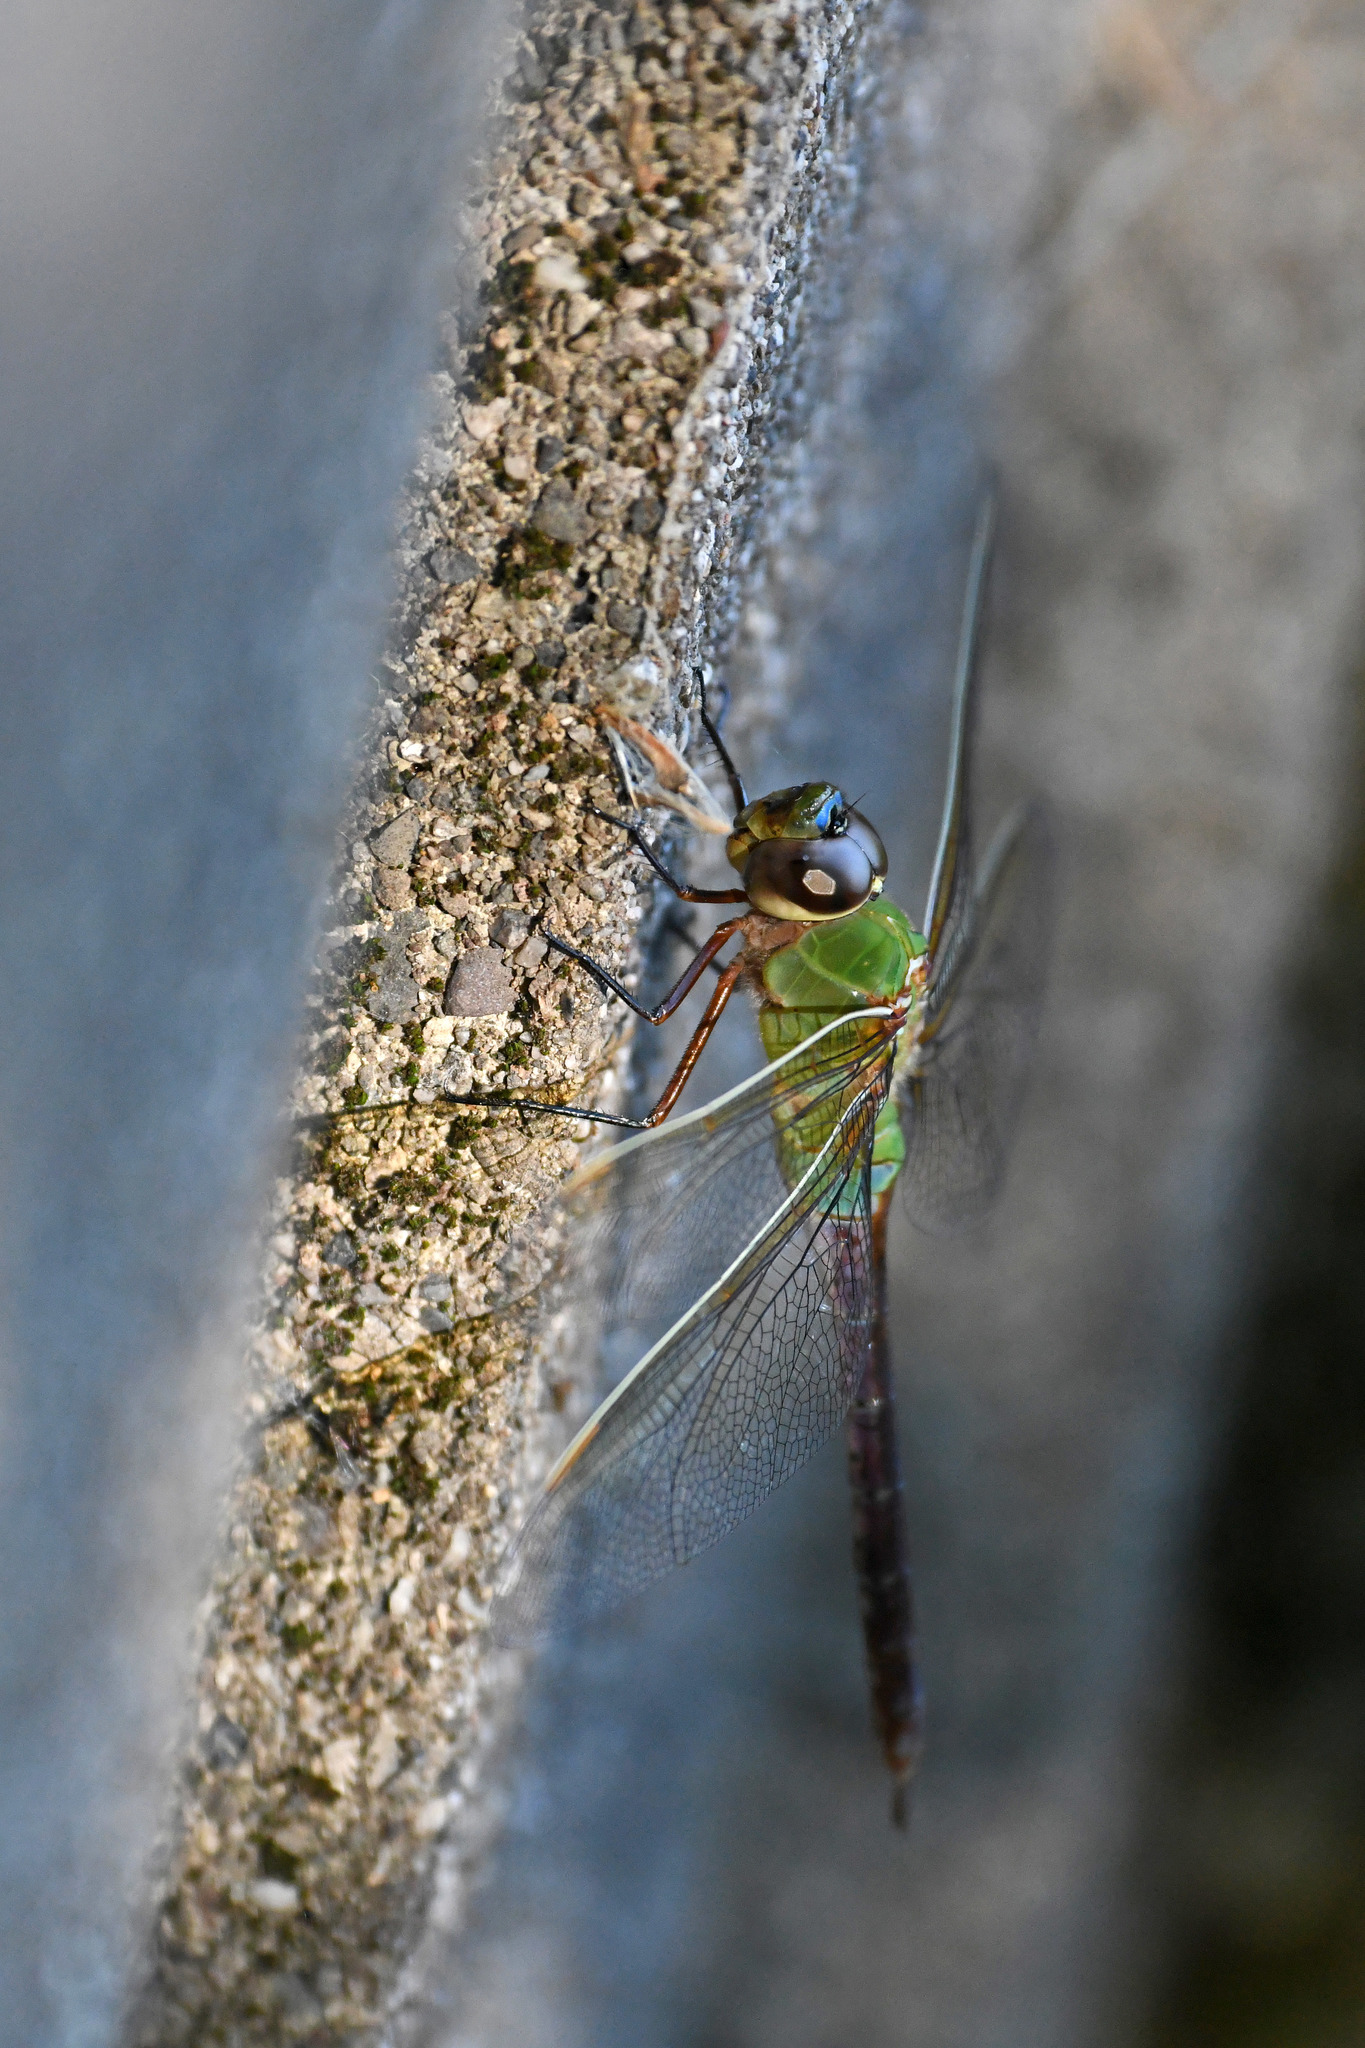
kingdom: Animalia
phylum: Arthropoda
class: Insecta
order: Odonata
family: Aeshnidae
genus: Anax
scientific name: Anax junius
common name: Common green darner
